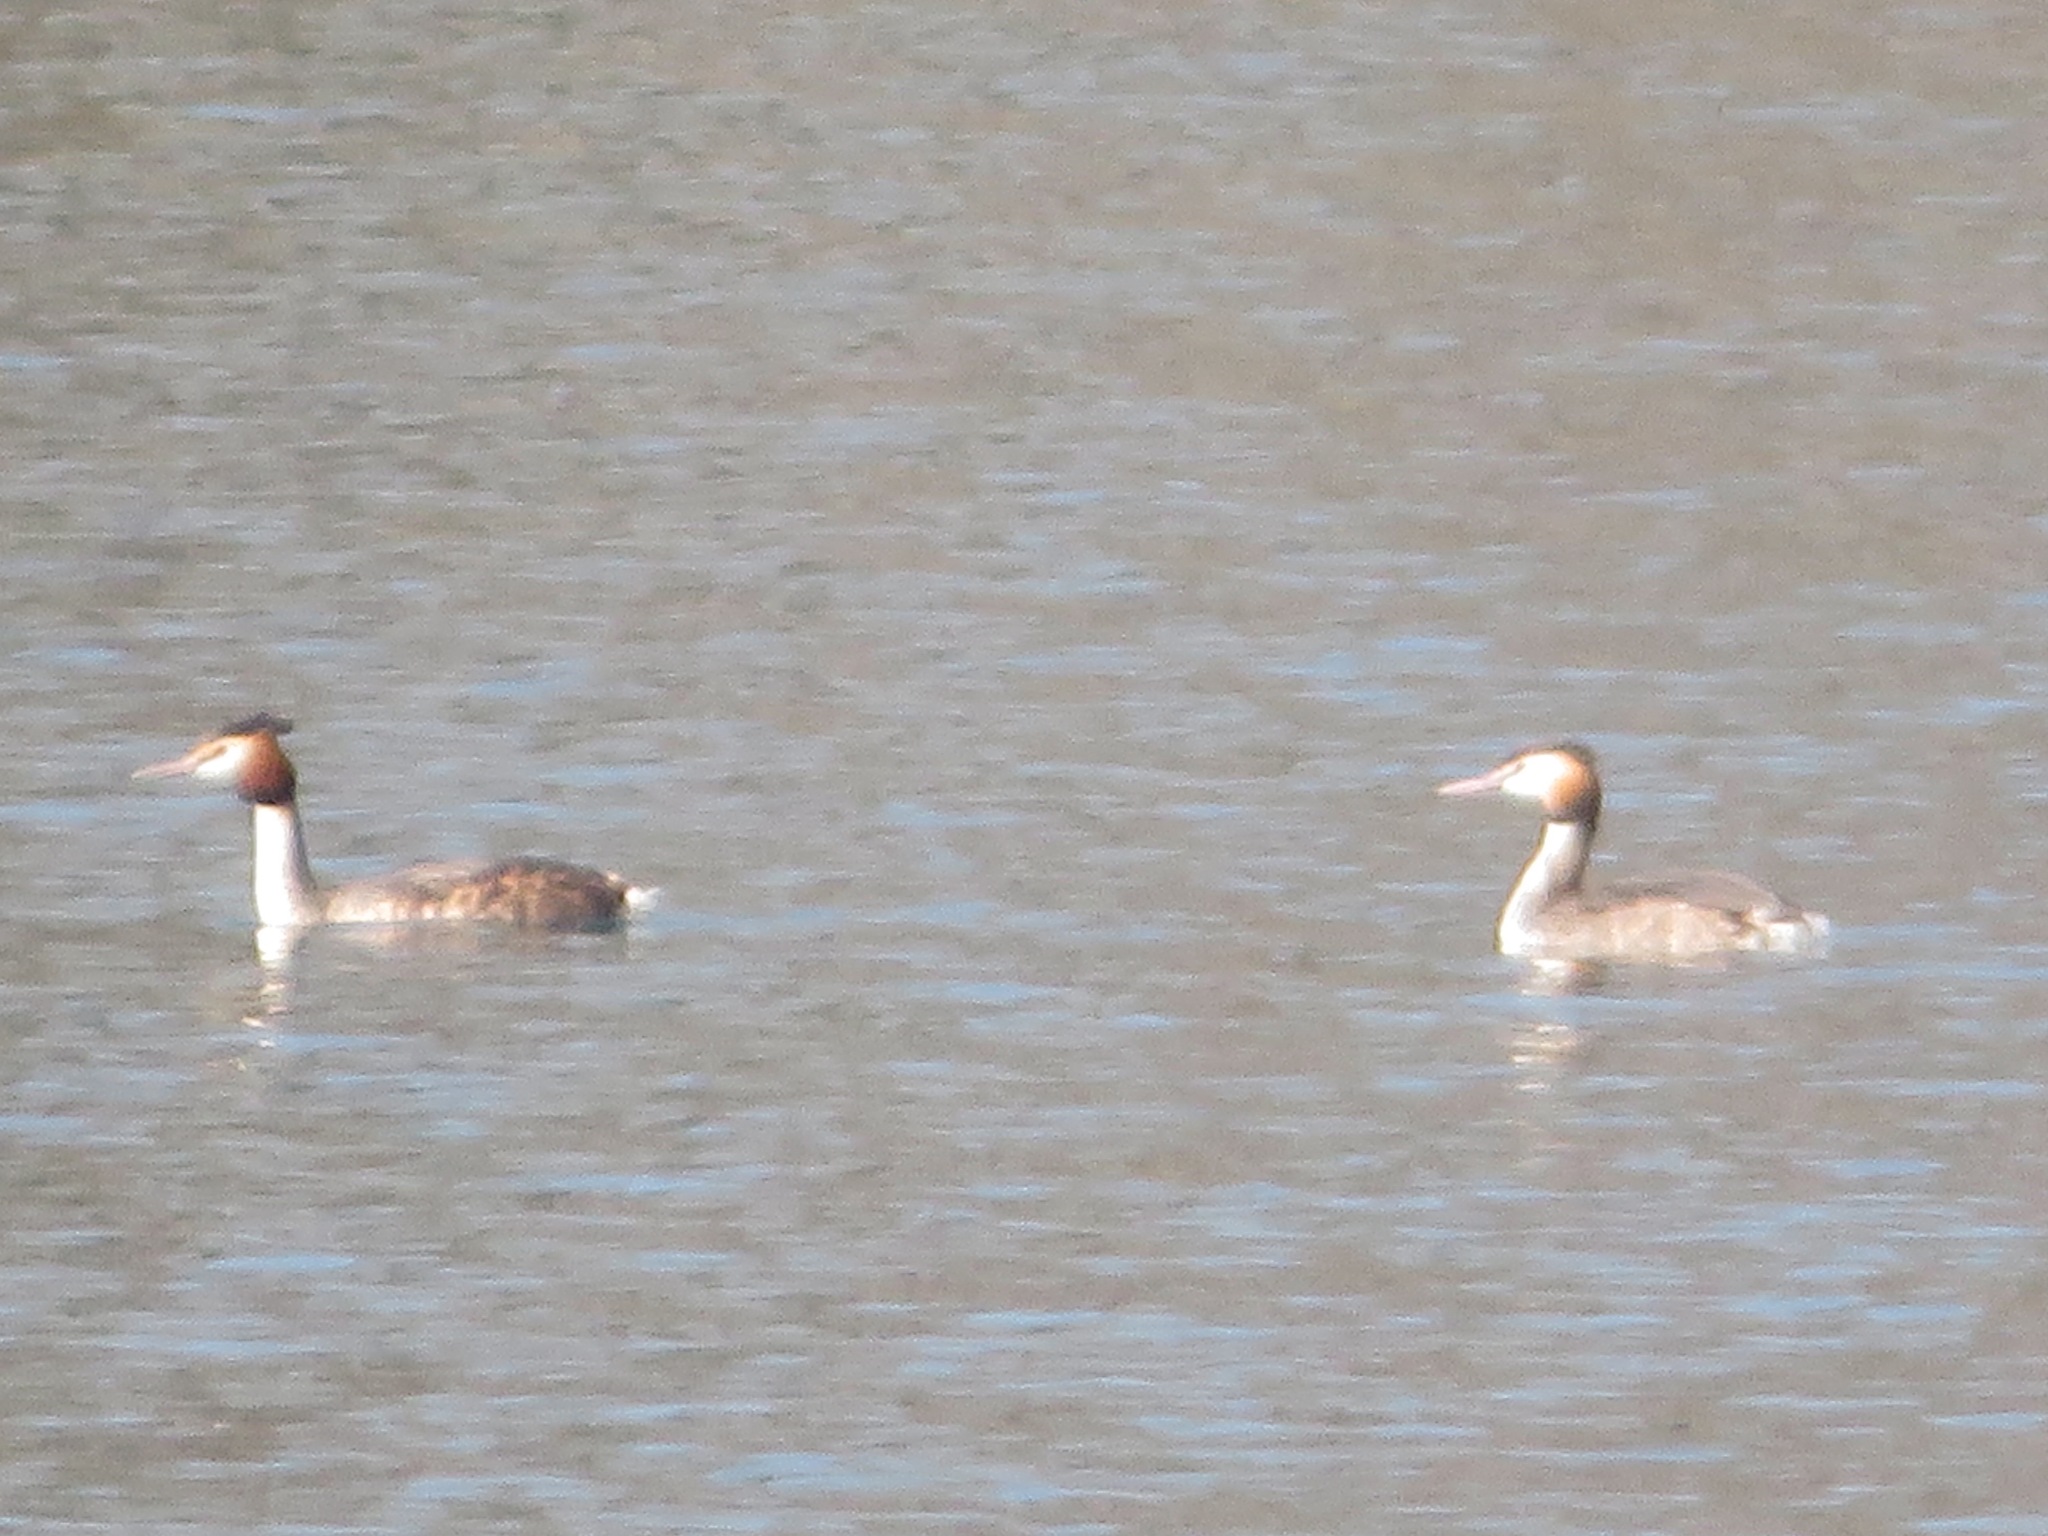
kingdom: Animalia
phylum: Chordata
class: Aves
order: Podicipediformes
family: Podicipedidae
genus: Podiceps
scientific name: Podiceps cristatus
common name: Great crested grebe
